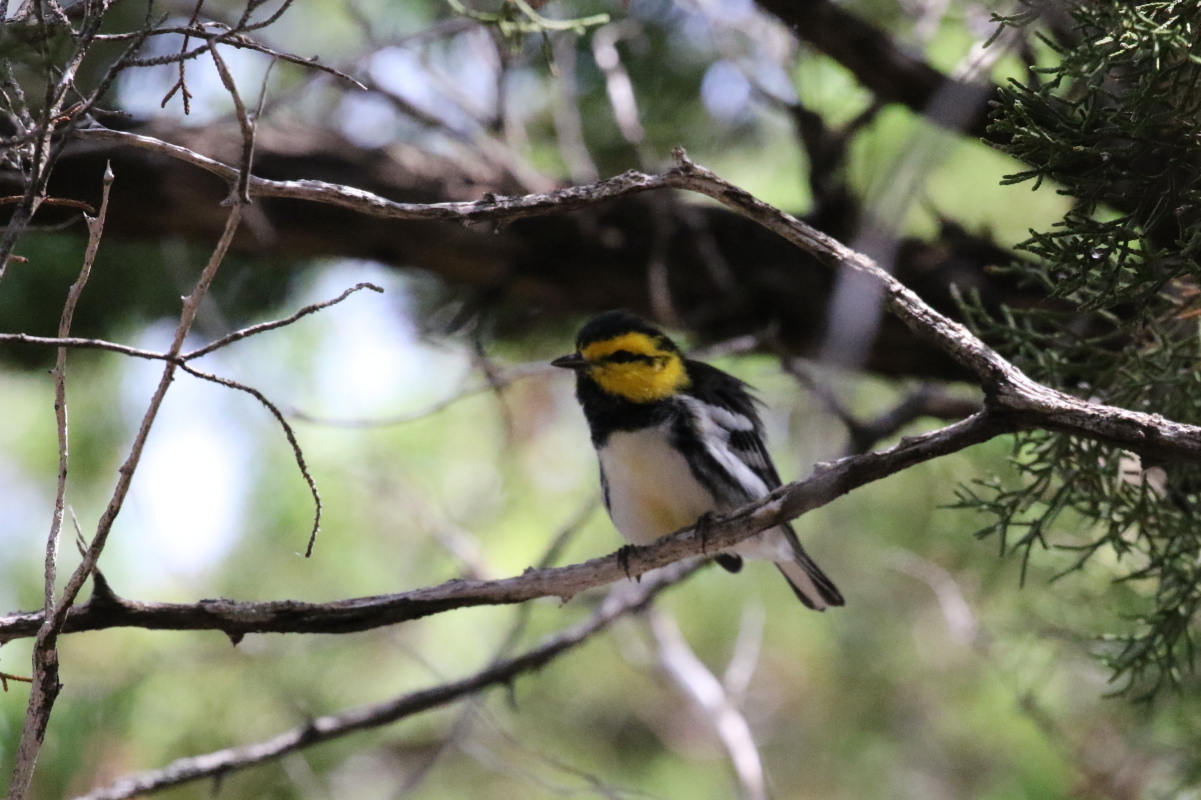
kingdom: Animalia
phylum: Chordata
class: Aves
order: Passeriformes
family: Parulidae
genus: Setophaga
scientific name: Setophaga chrysoparia
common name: Golden-cheeked warbler
